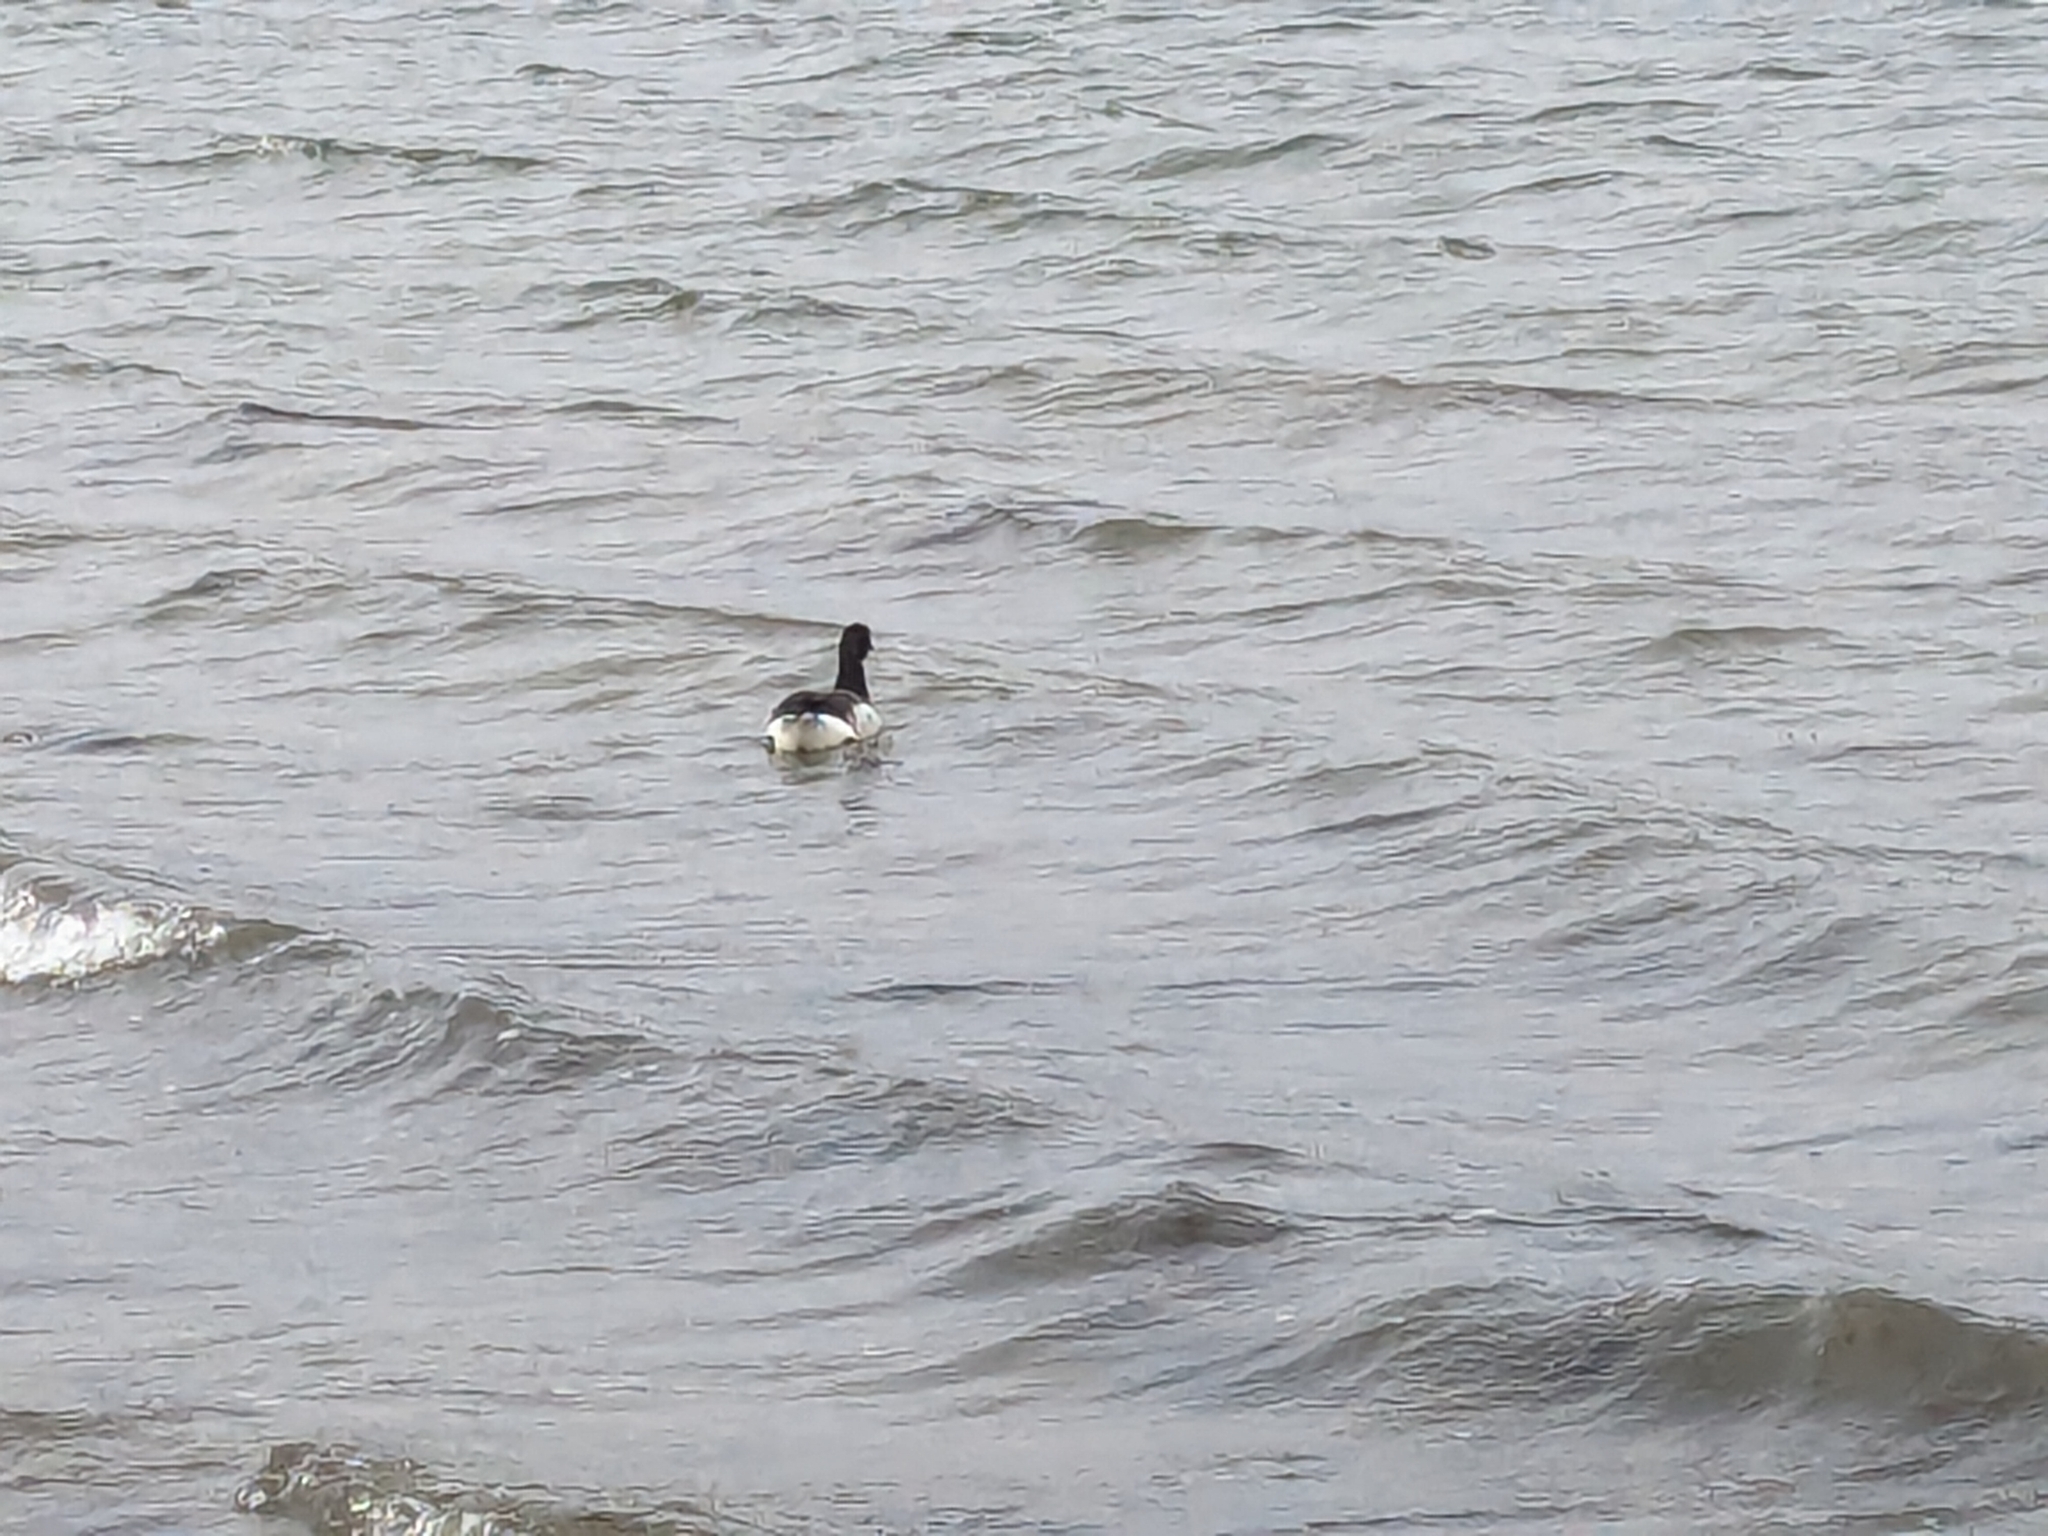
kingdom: Animalia
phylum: Chordata
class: Aves
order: Anseriformes
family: Anatidae
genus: Branta
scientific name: Branta bernicla
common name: Brant goose
